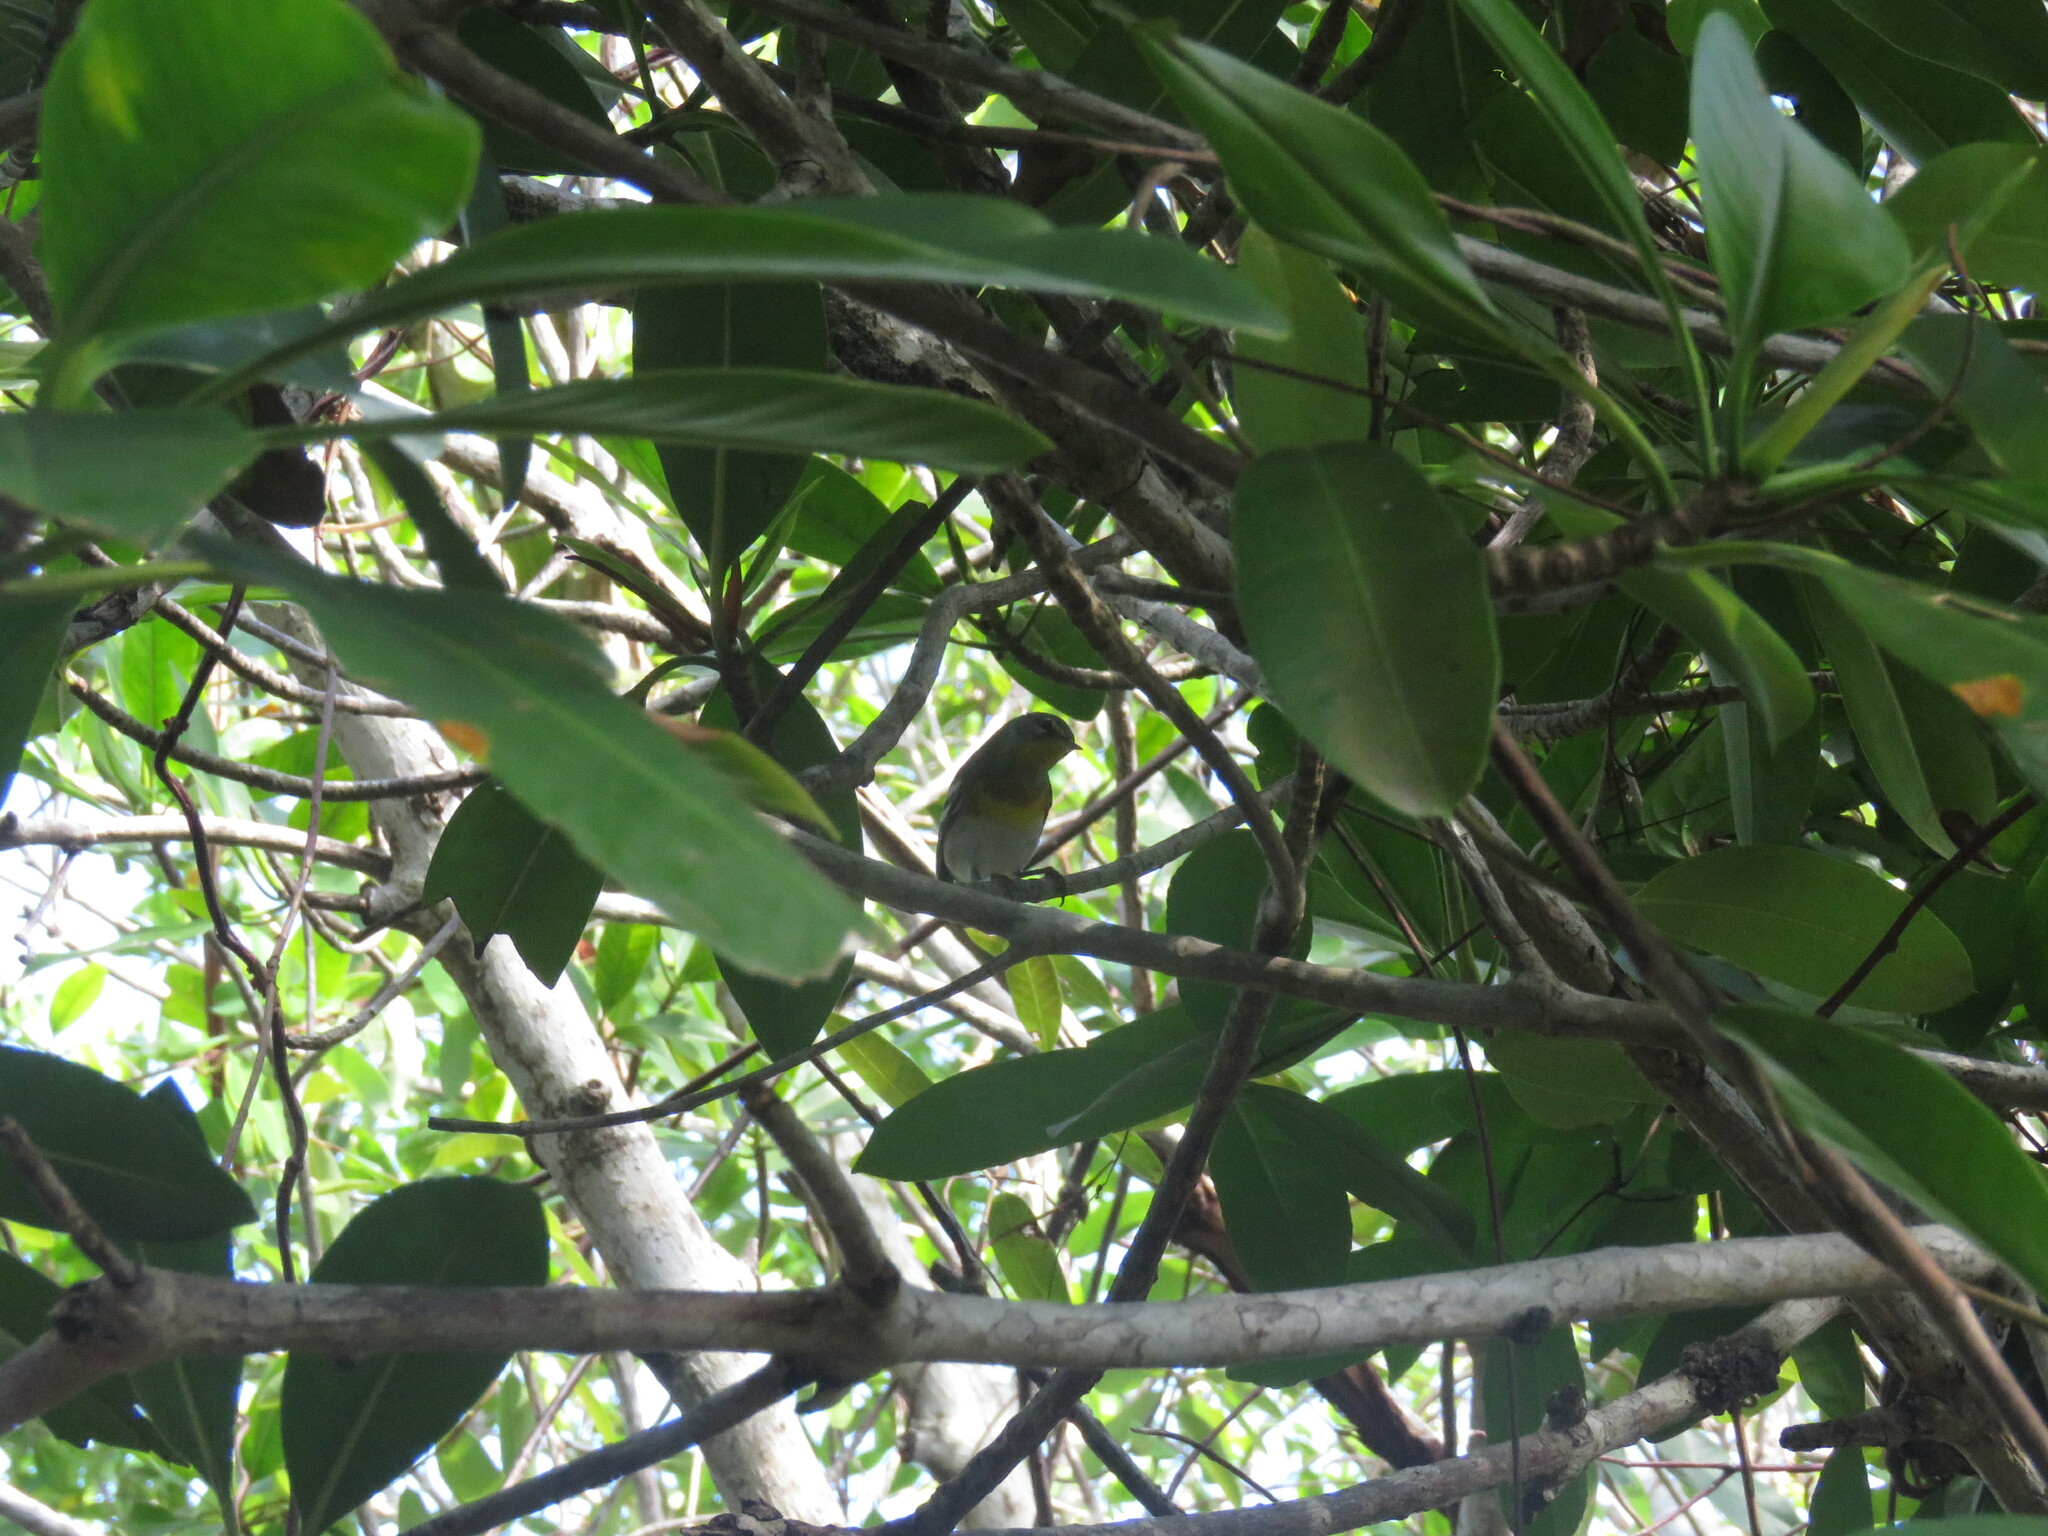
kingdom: Animalia
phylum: Chordata
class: Aves
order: Passeriformes
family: Parulidae
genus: Setophaga
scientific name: Setophaga americana
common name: Northern parula
